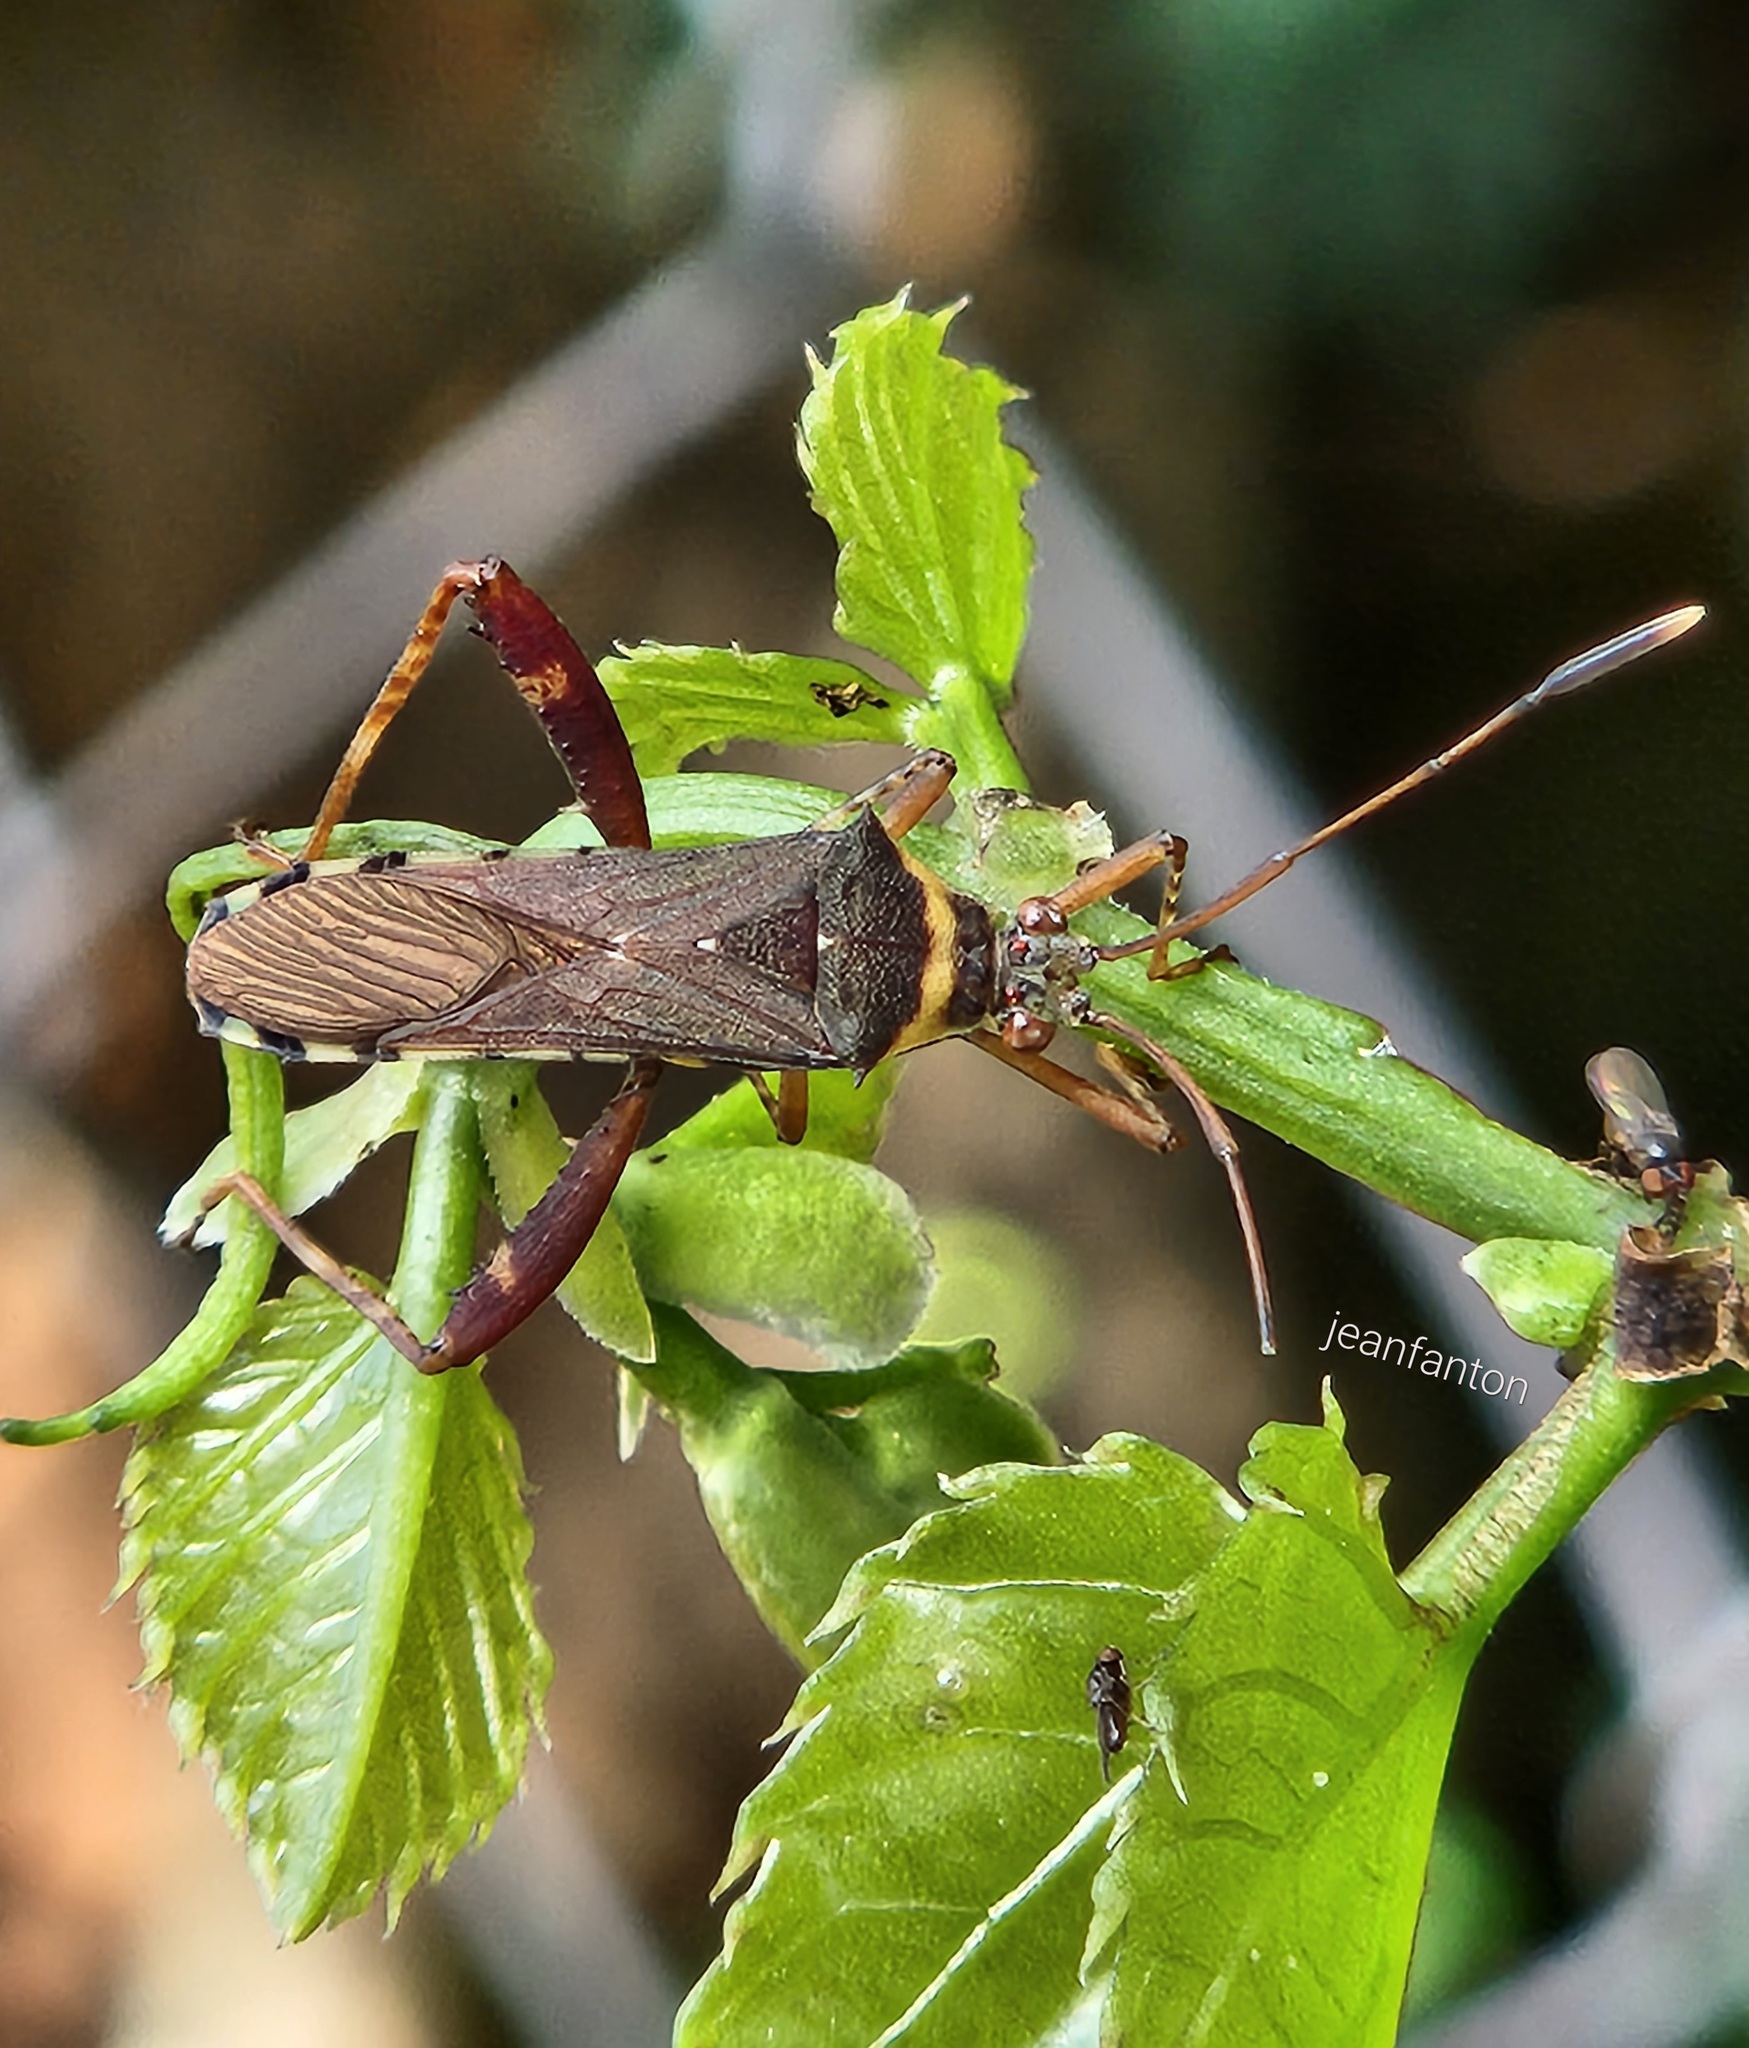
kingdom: Animalia
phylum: Arthropoda
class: Insecta
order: Hemiptera
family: Coreidae
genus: Zoreva
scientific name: Zoreva dentipes
